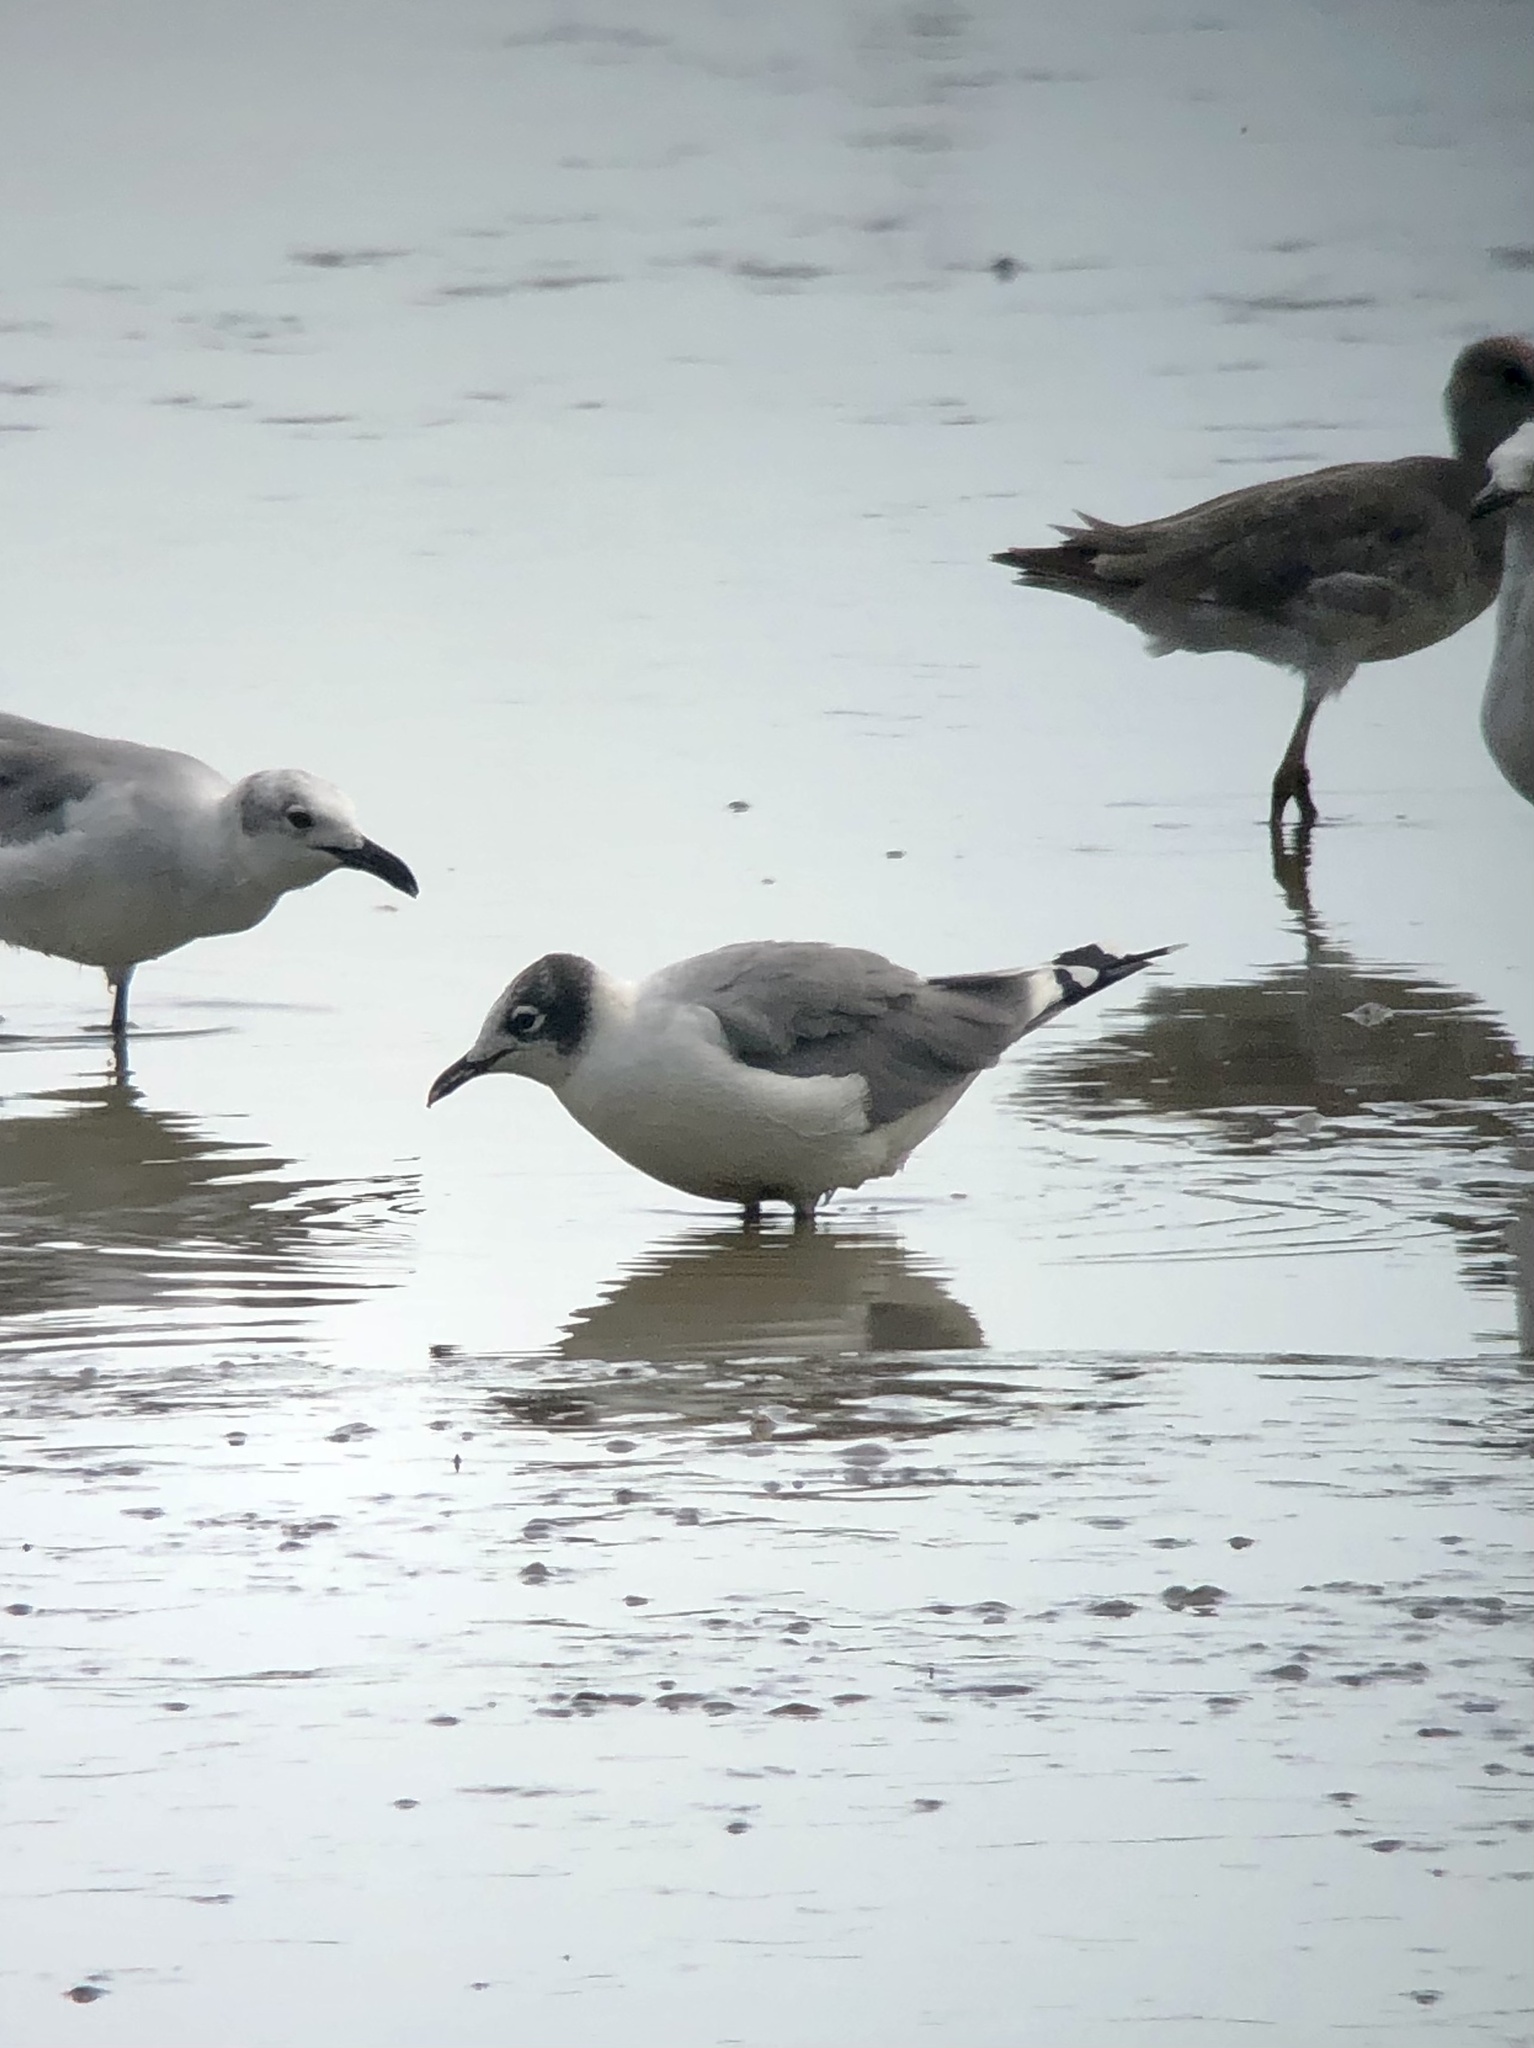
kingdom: Animalia
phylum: Chordata
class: Aves
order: Charadriiformes
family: Laridae
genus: Leucophaeus
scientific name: Leucophaeus pipixcan
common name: Franklin's gull
